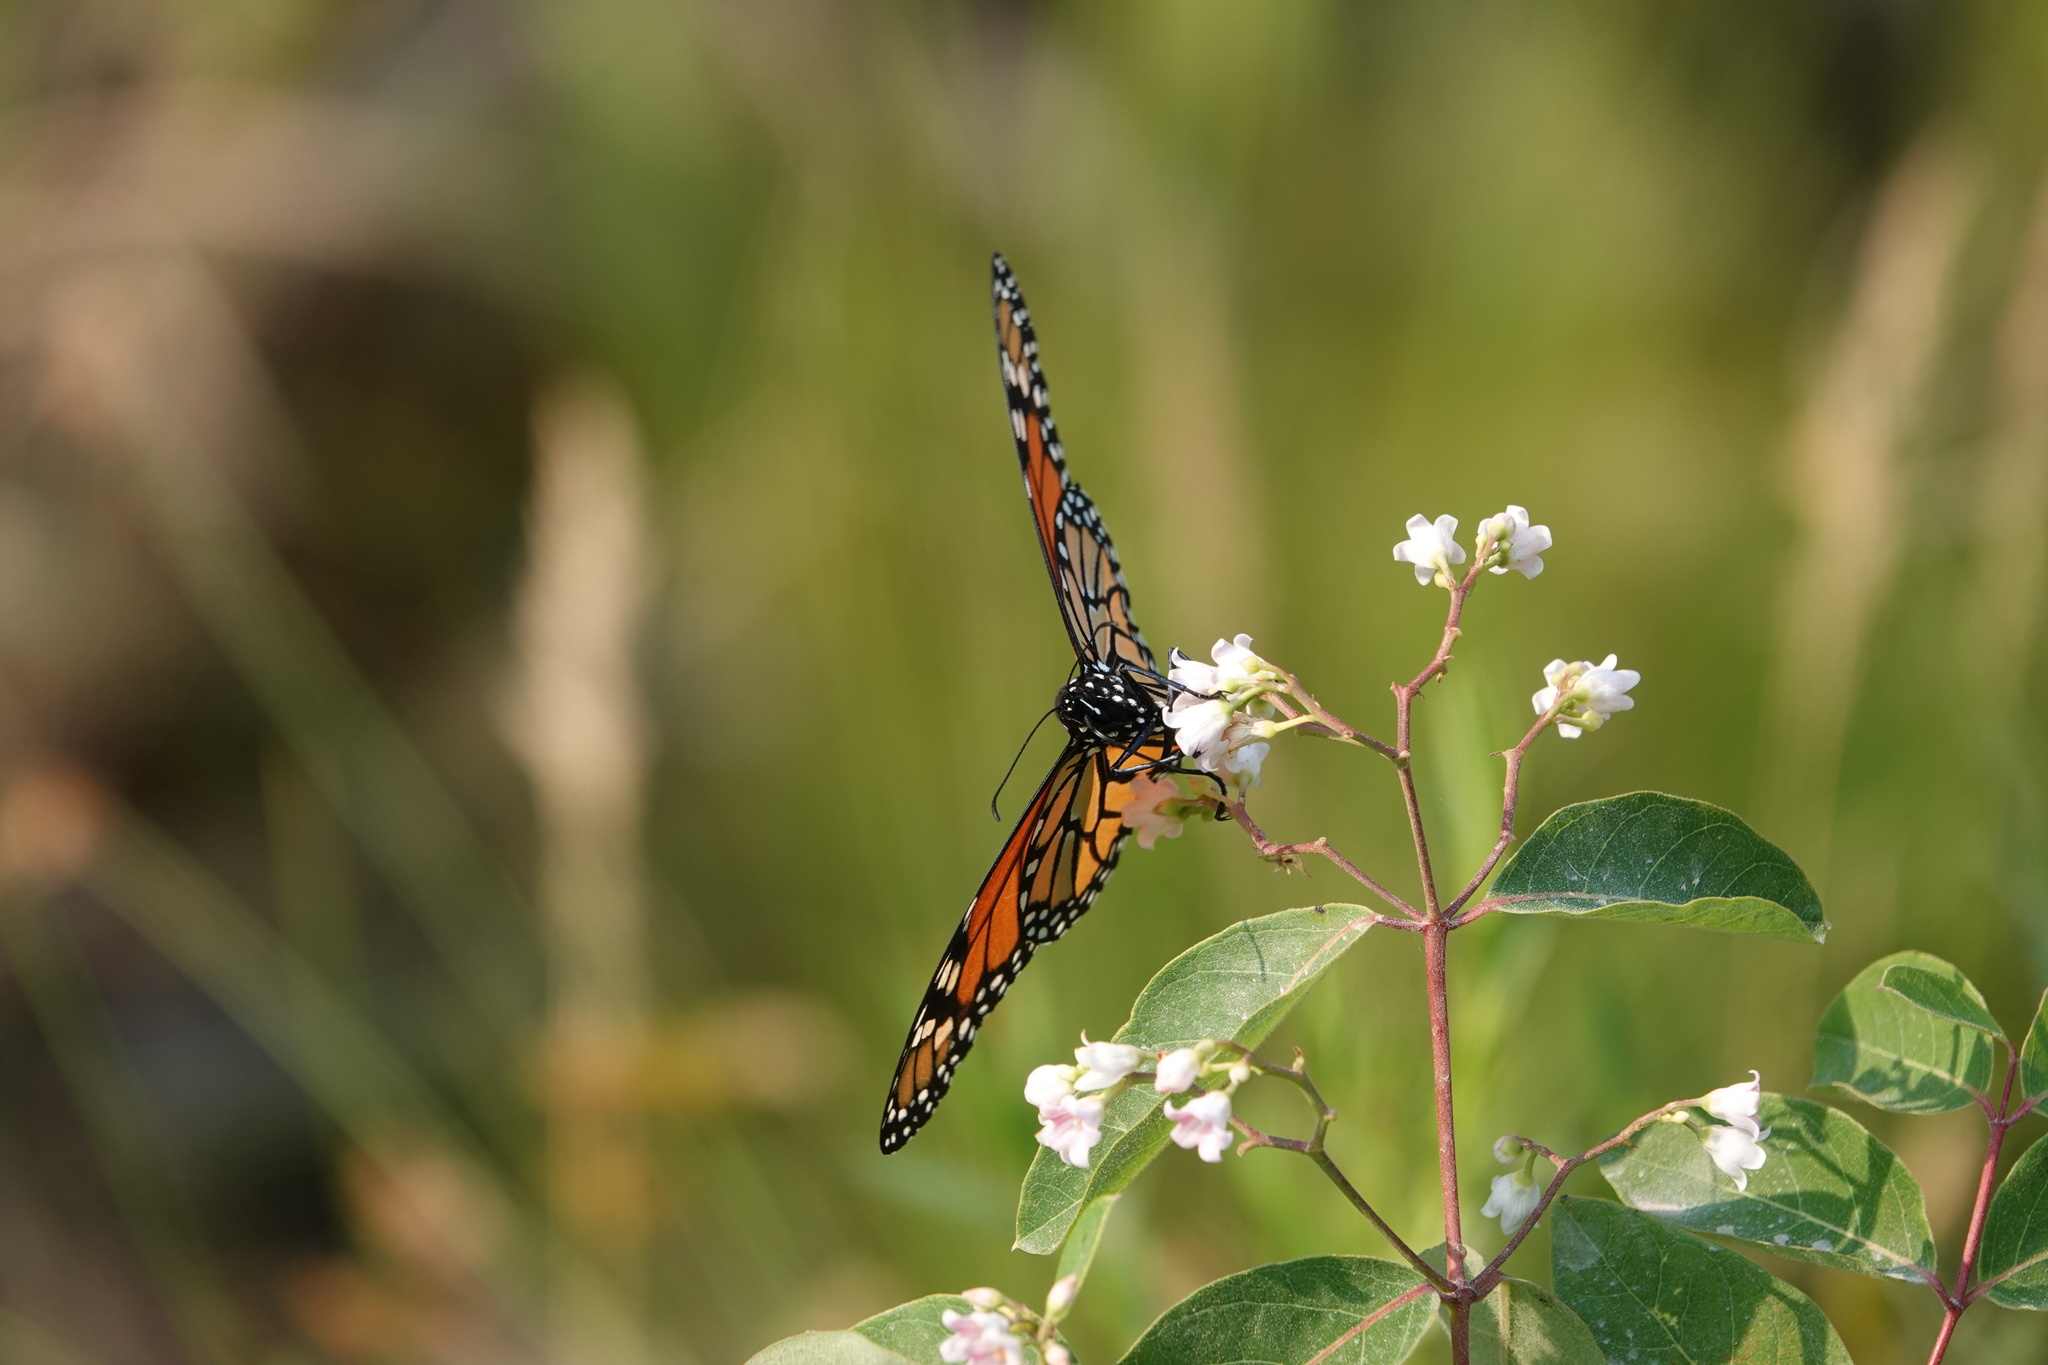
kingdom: Animalia
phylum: Arthropoda
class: Insecta
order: Lepidoptera
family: Nymphalidae
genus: Danaus
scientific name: Danaus plexippus
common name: Monarch
